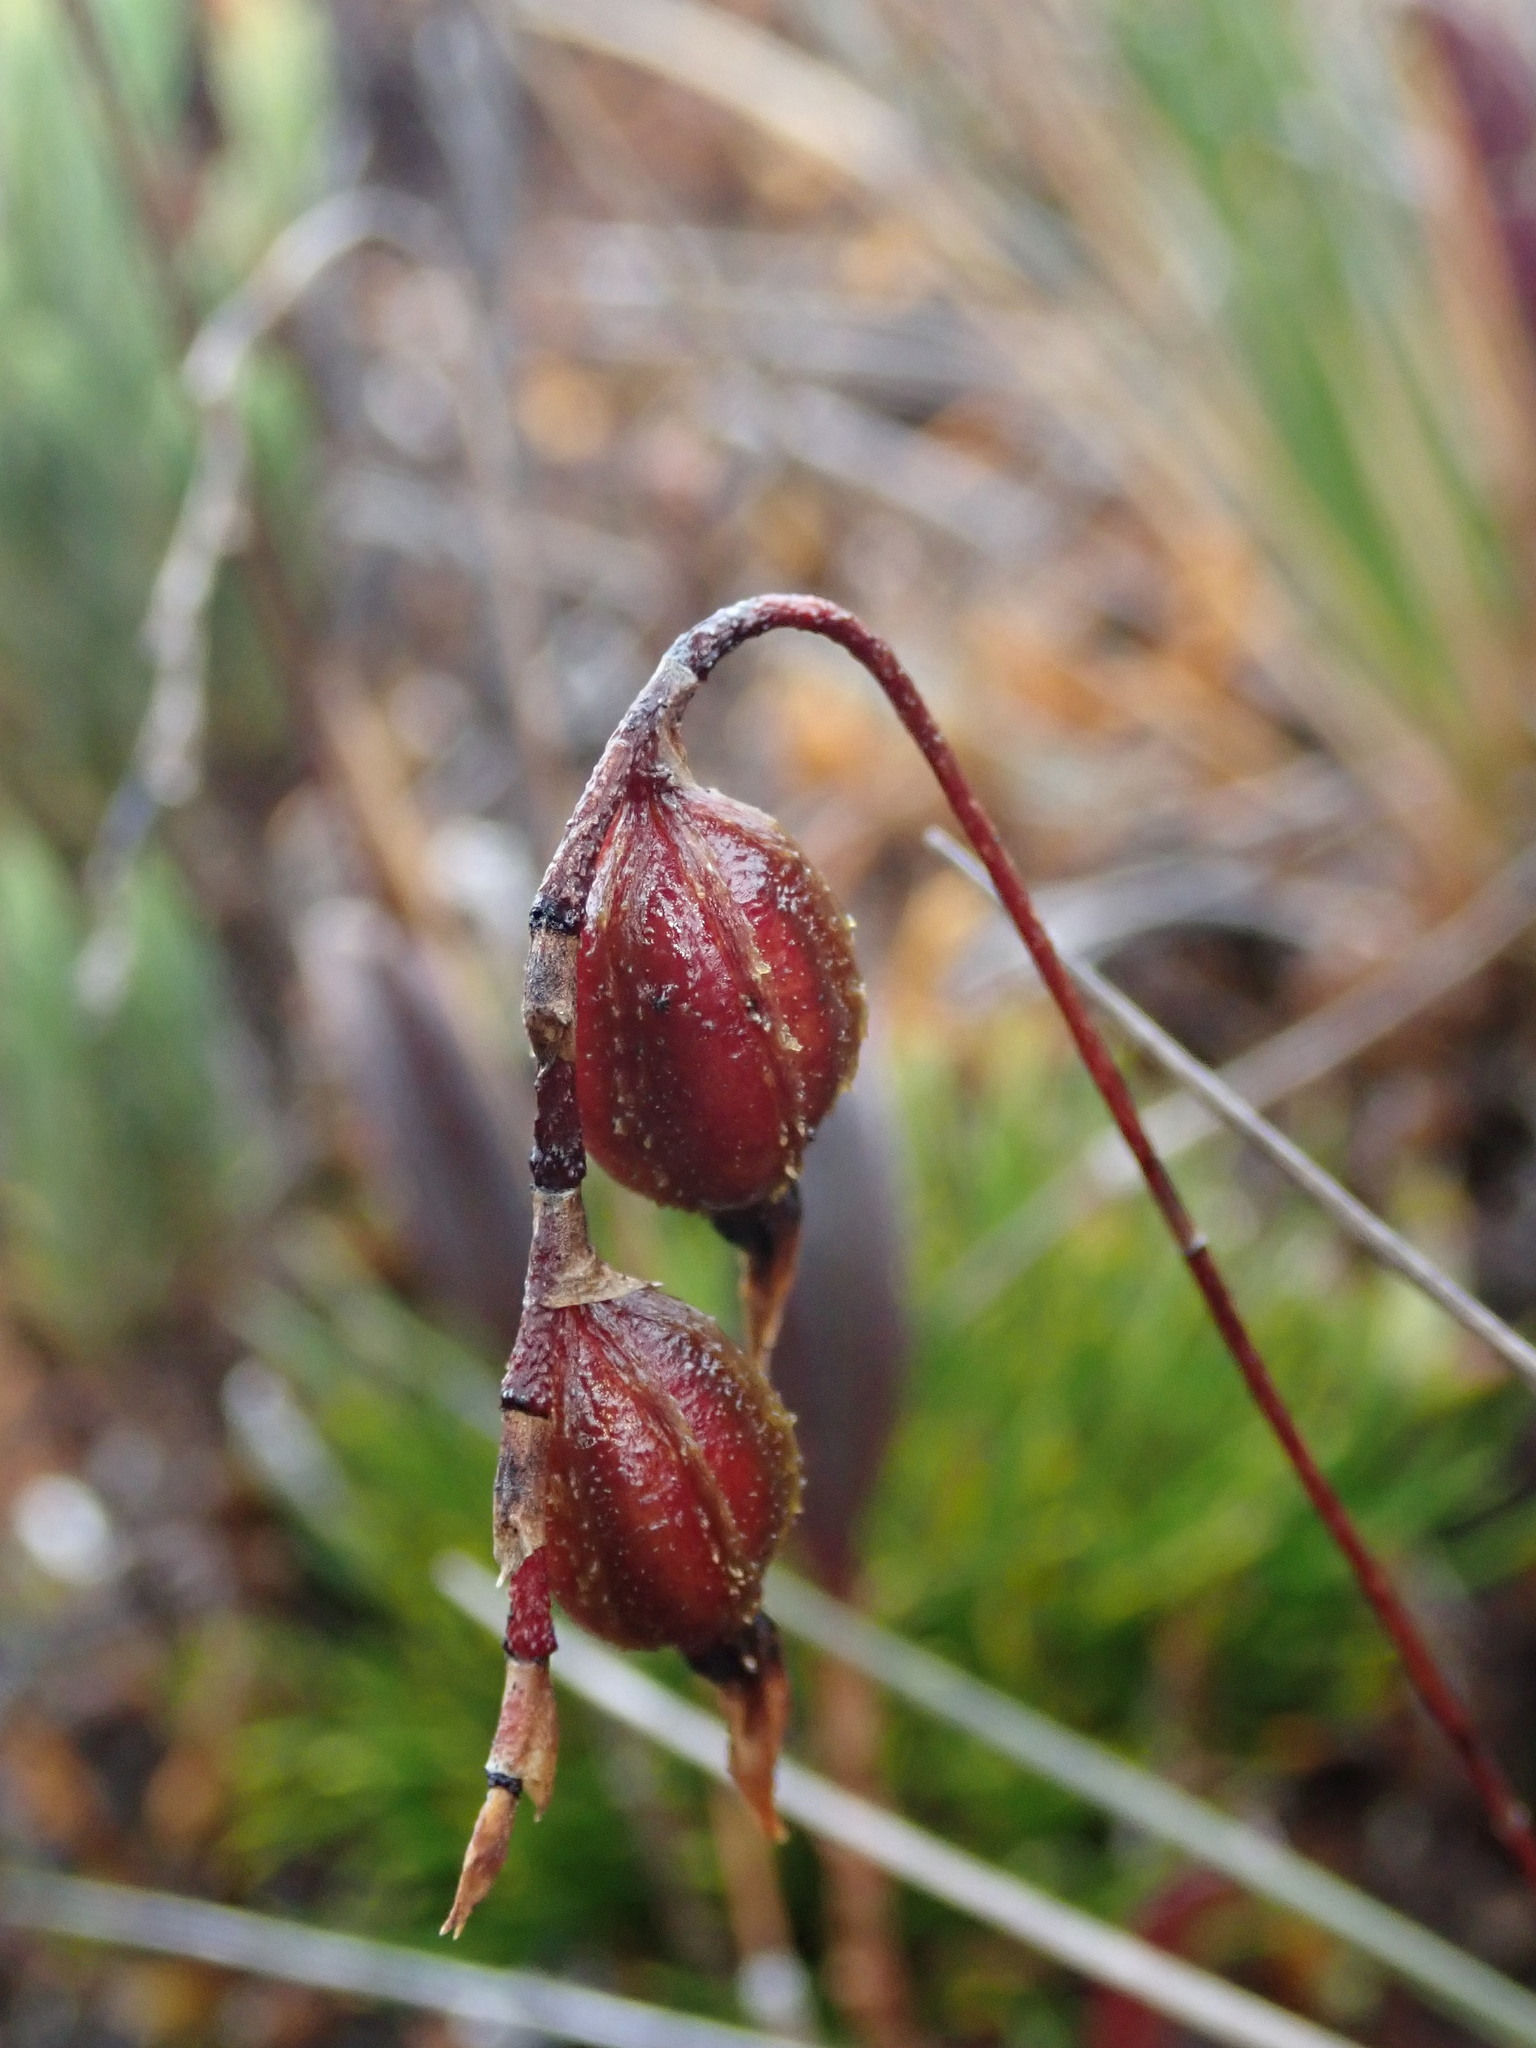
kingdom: Plantae
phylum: Tracheophyta
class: Liliopsida
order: Asparagales
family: Orchidaceae
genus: Draconanthes
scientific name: Draconanthes aberrans
